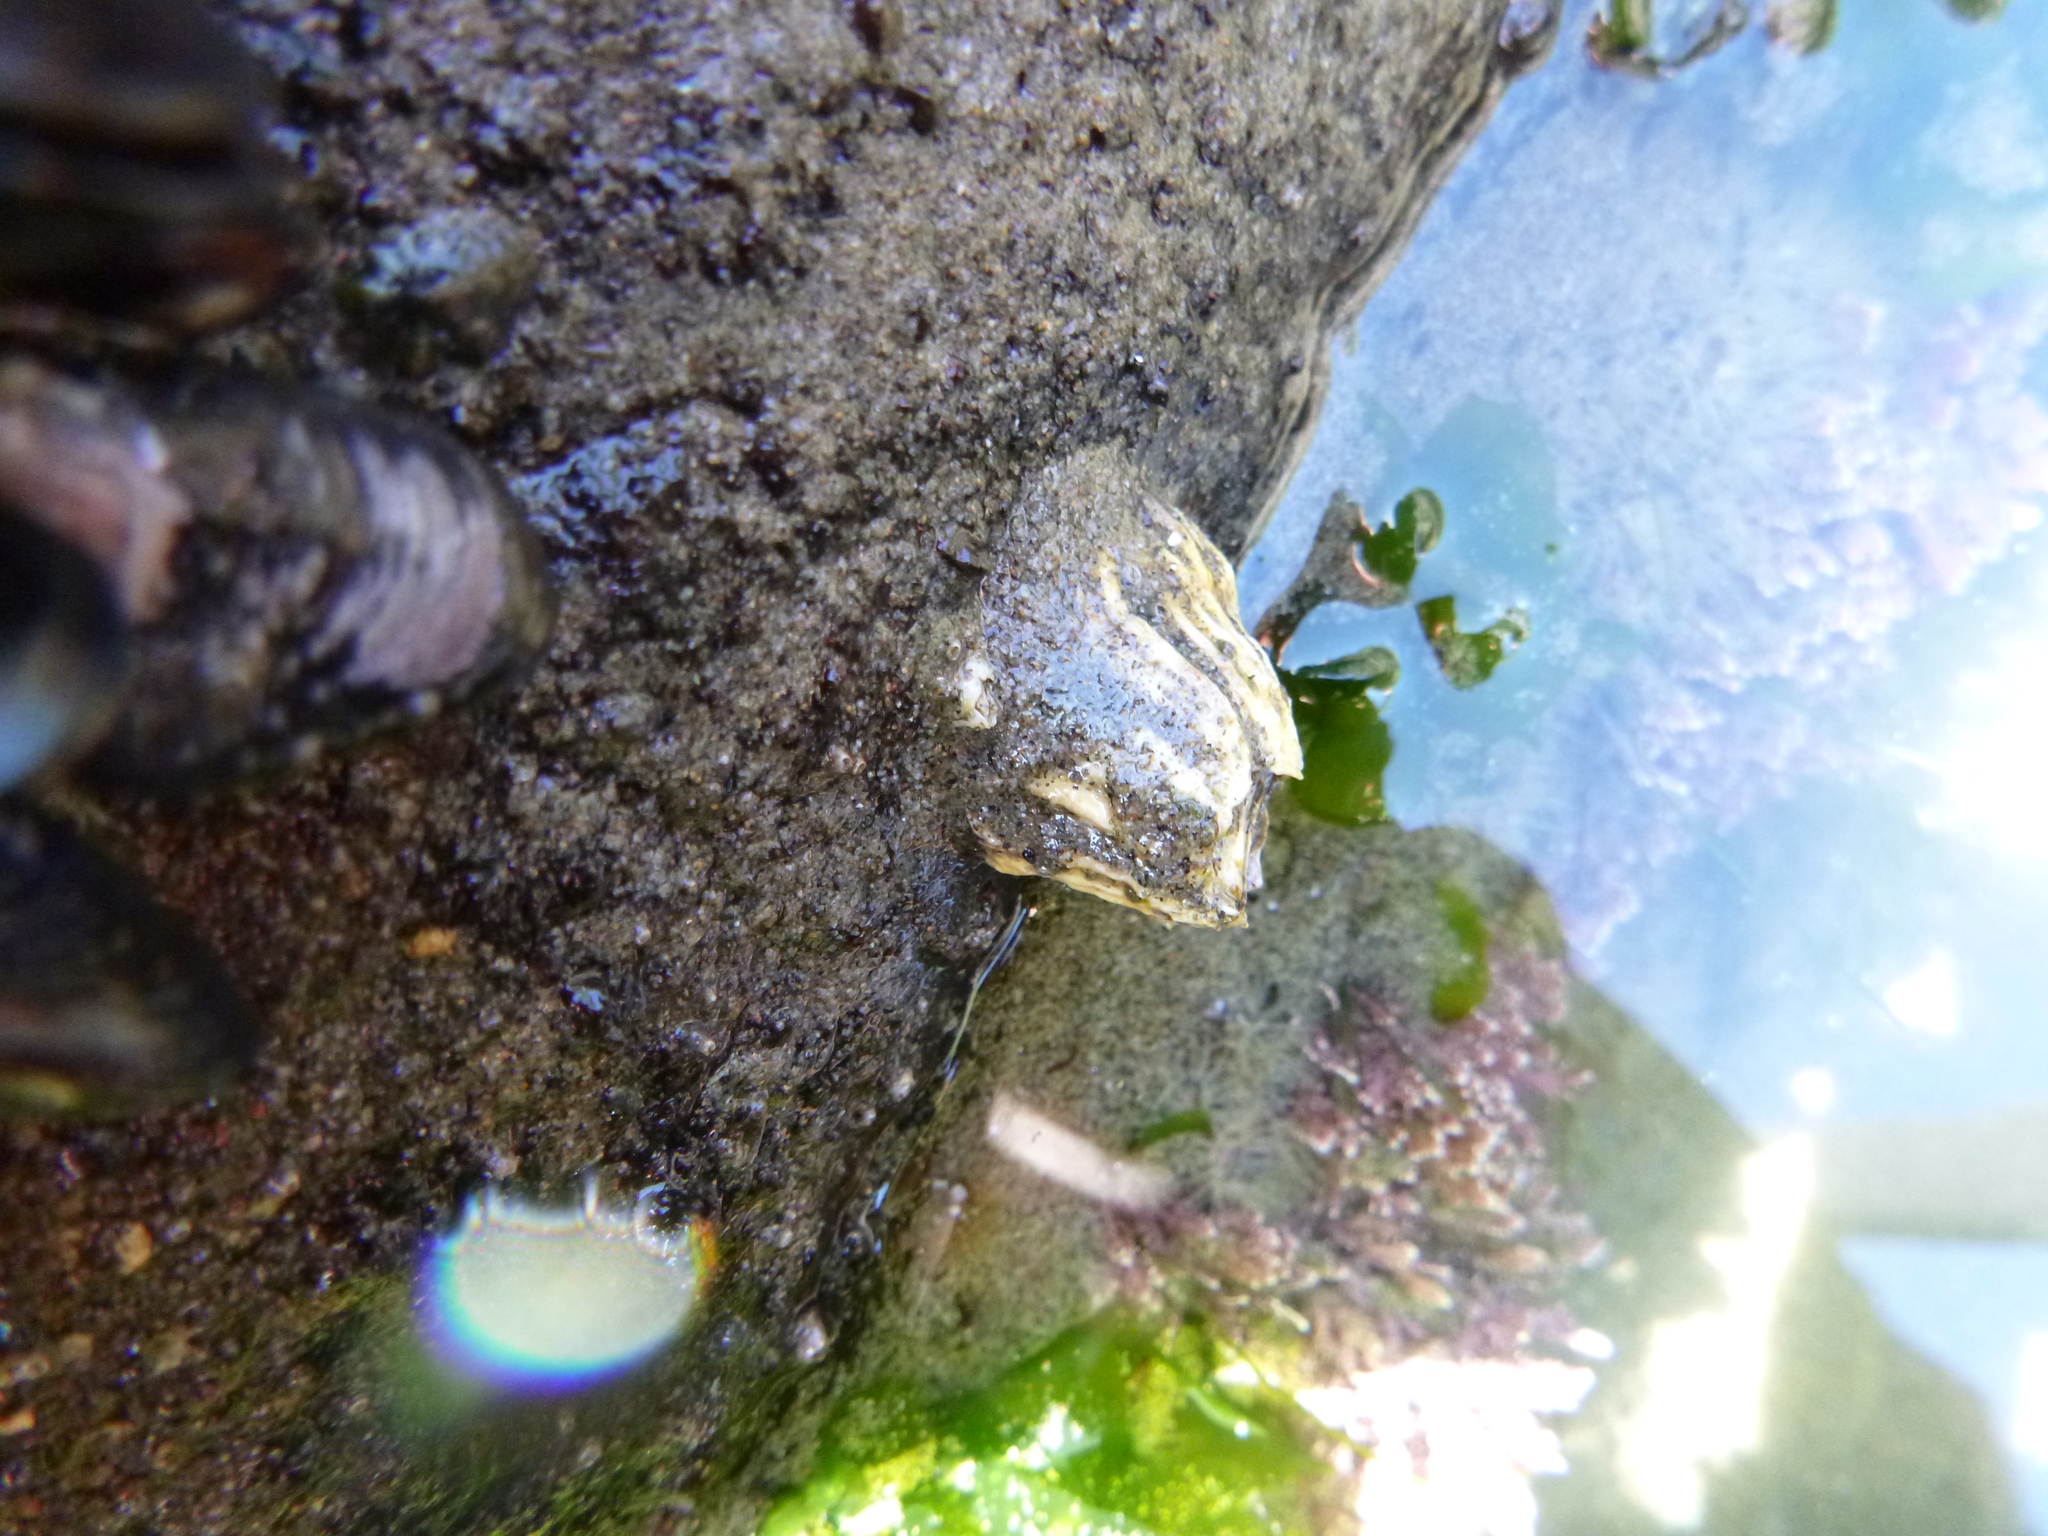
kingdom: Animalia
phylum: Arthropoda
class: Maxillopoda
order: Sessilia
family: Tetraclitidae
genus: Epopella
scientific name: Epopella plicata
